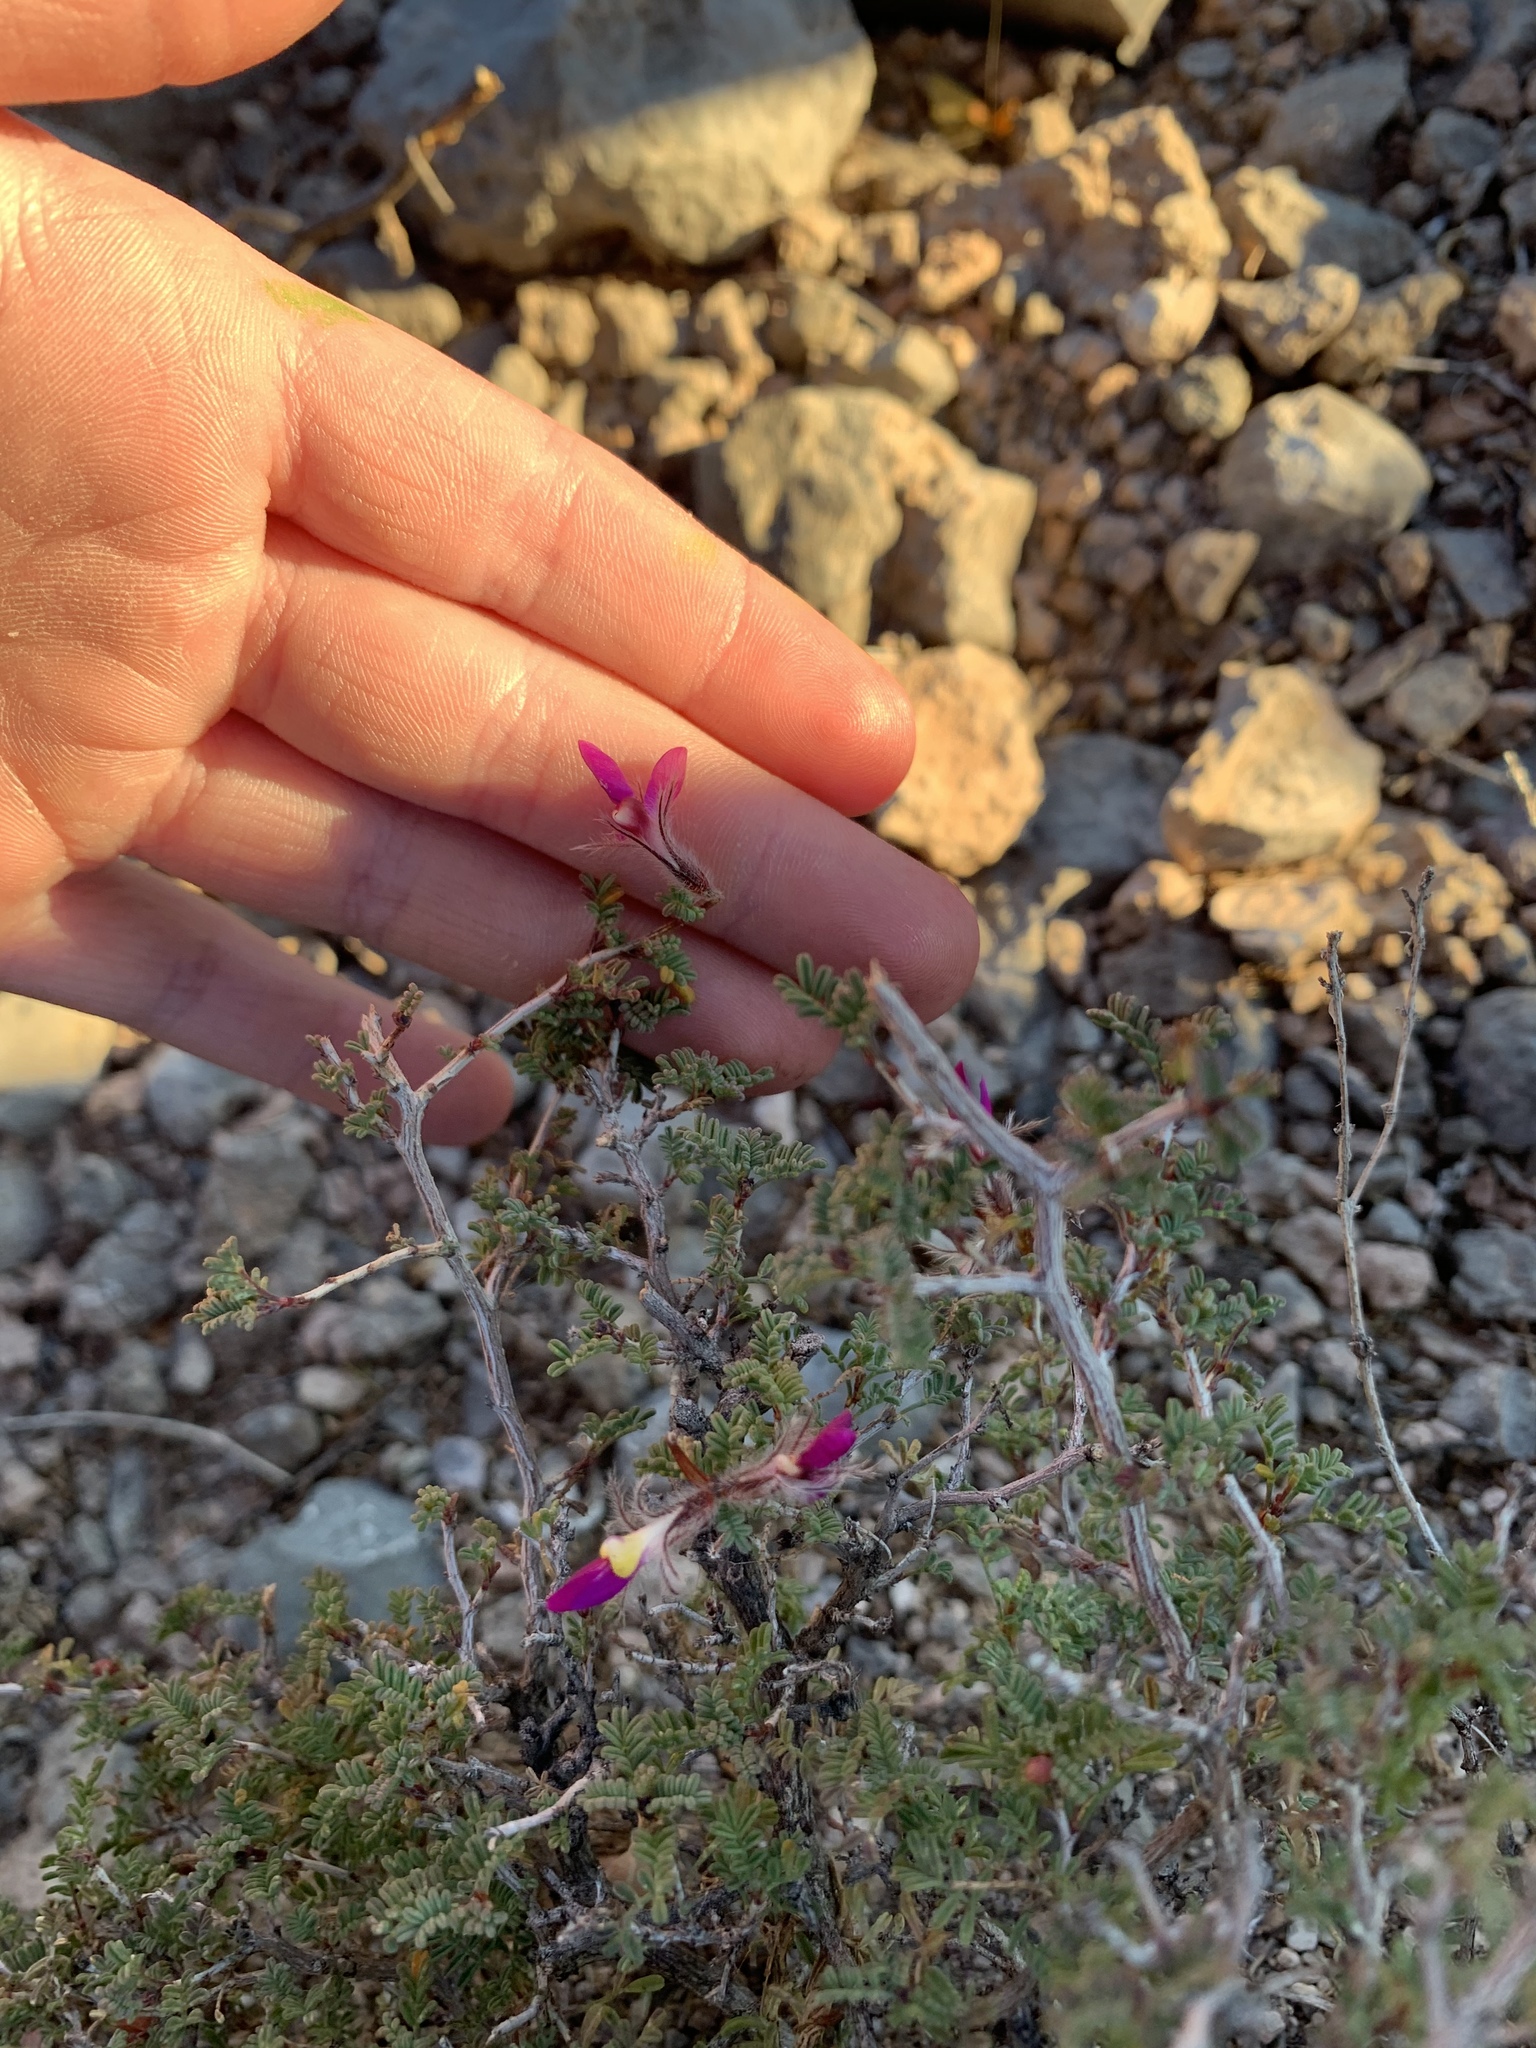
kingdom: Plantae
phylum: Tracheophyta
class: Magnoliopsida
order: Fabales
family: Fabaceae
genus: Dalea
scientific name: Dalea formosa
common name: Feather-plume dalea
